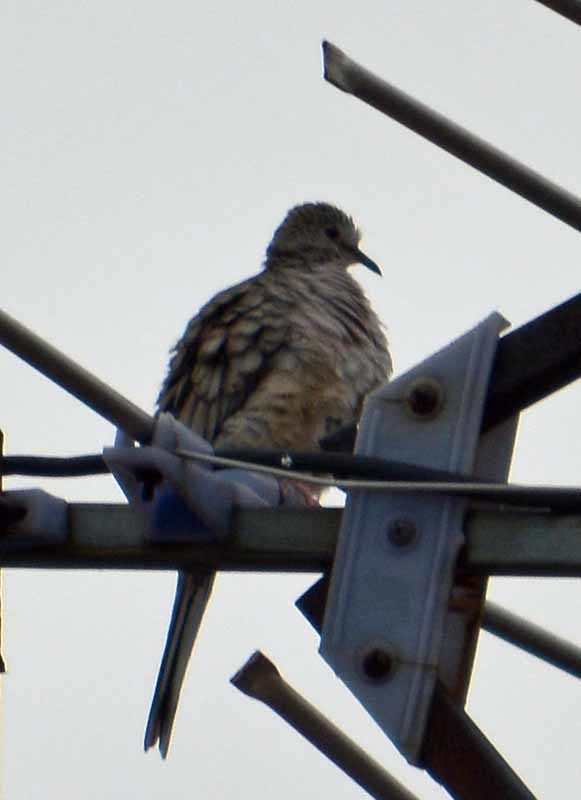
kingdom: Animalia
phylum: Chordata
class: Aves
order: Columbiformes
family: Columbidae
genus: Columbina
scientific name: Columbina inca
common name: Inca dove
